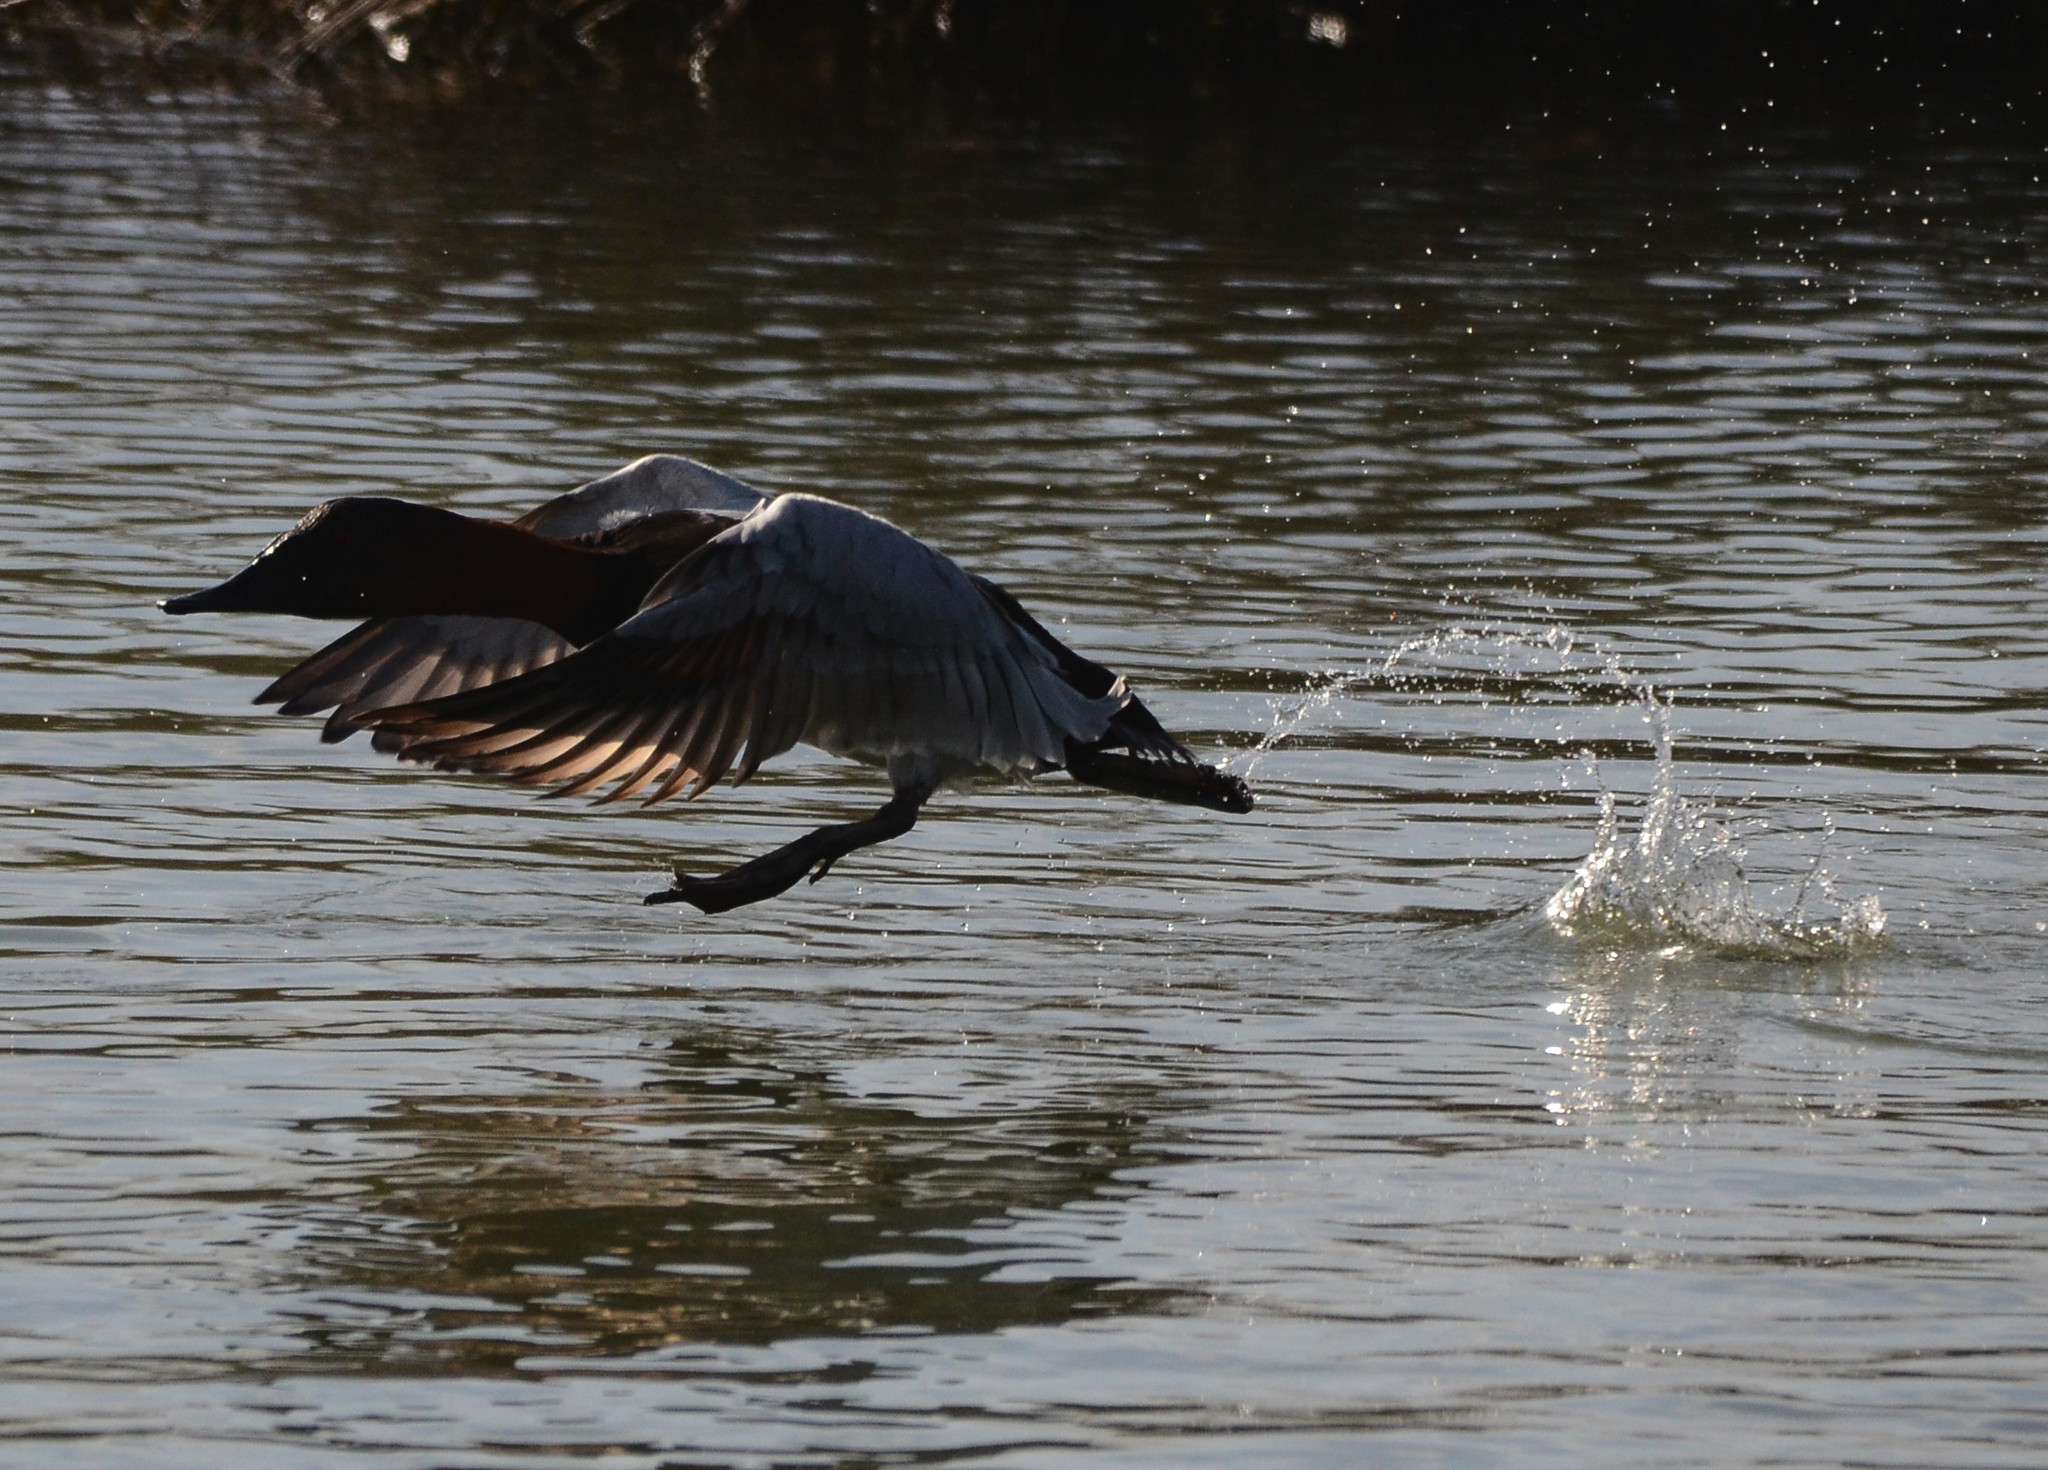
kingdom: Animalia
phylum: Chordata
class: Aves
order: Anseriformes
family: Anatidae
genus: Aythya
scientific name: Aythya valisineria
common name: Canvasback
